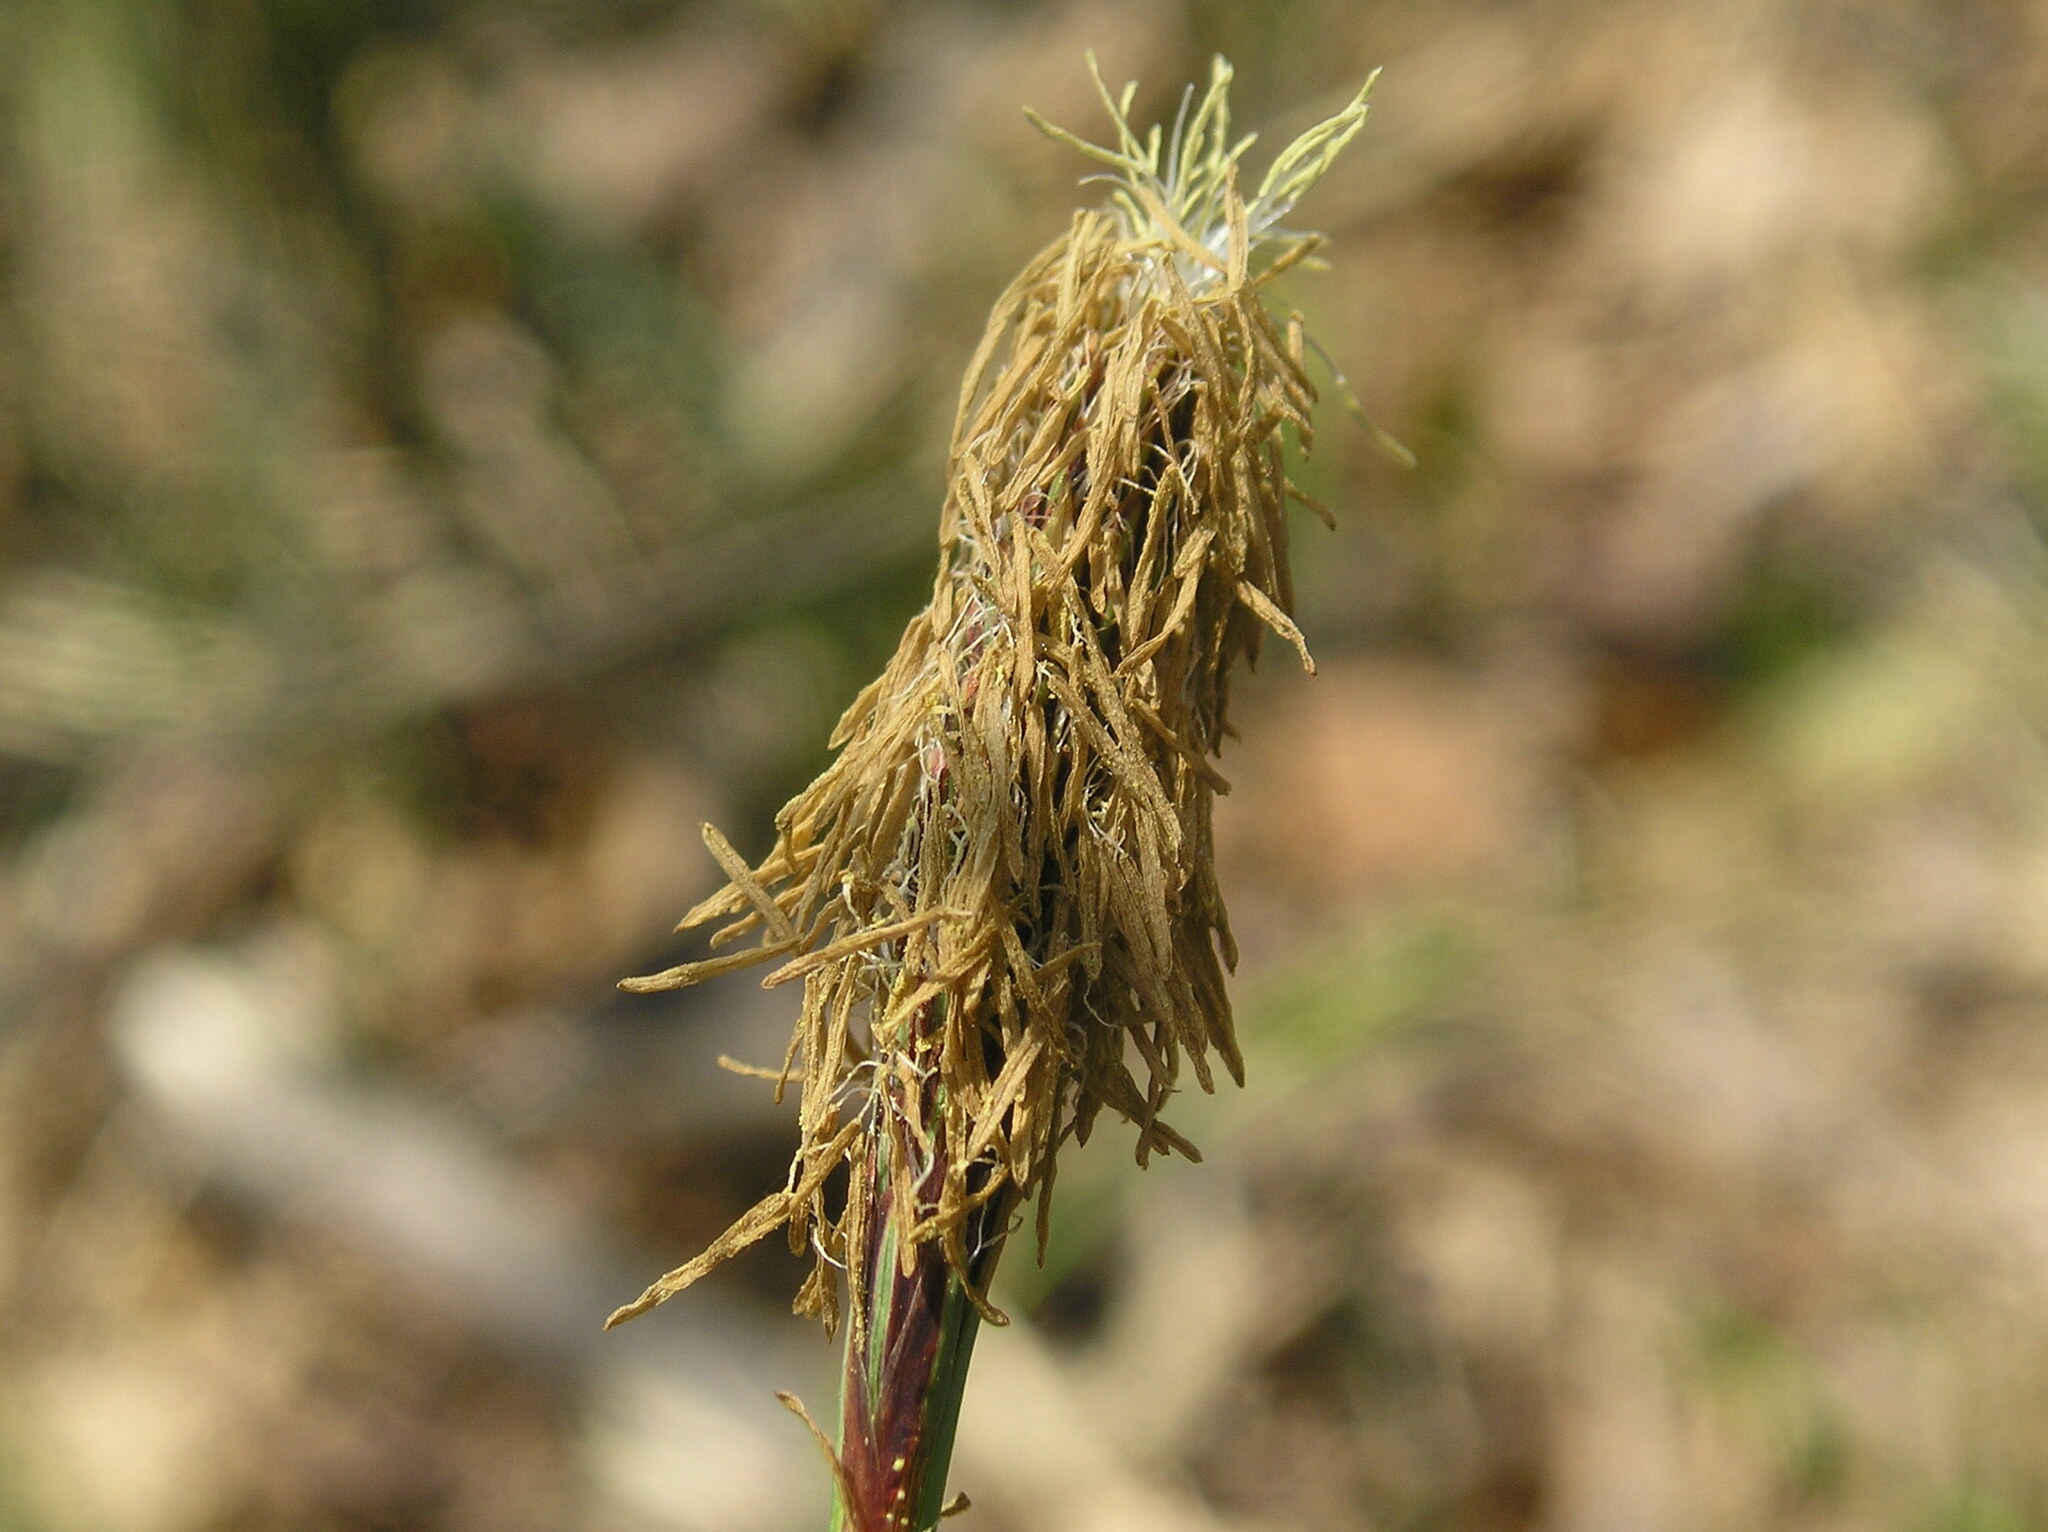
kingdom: Plantae
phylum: Tracheophyta
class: Liliopsida
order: Poales
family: Cyperaceae
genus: Carex
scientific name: Carex pilosa
